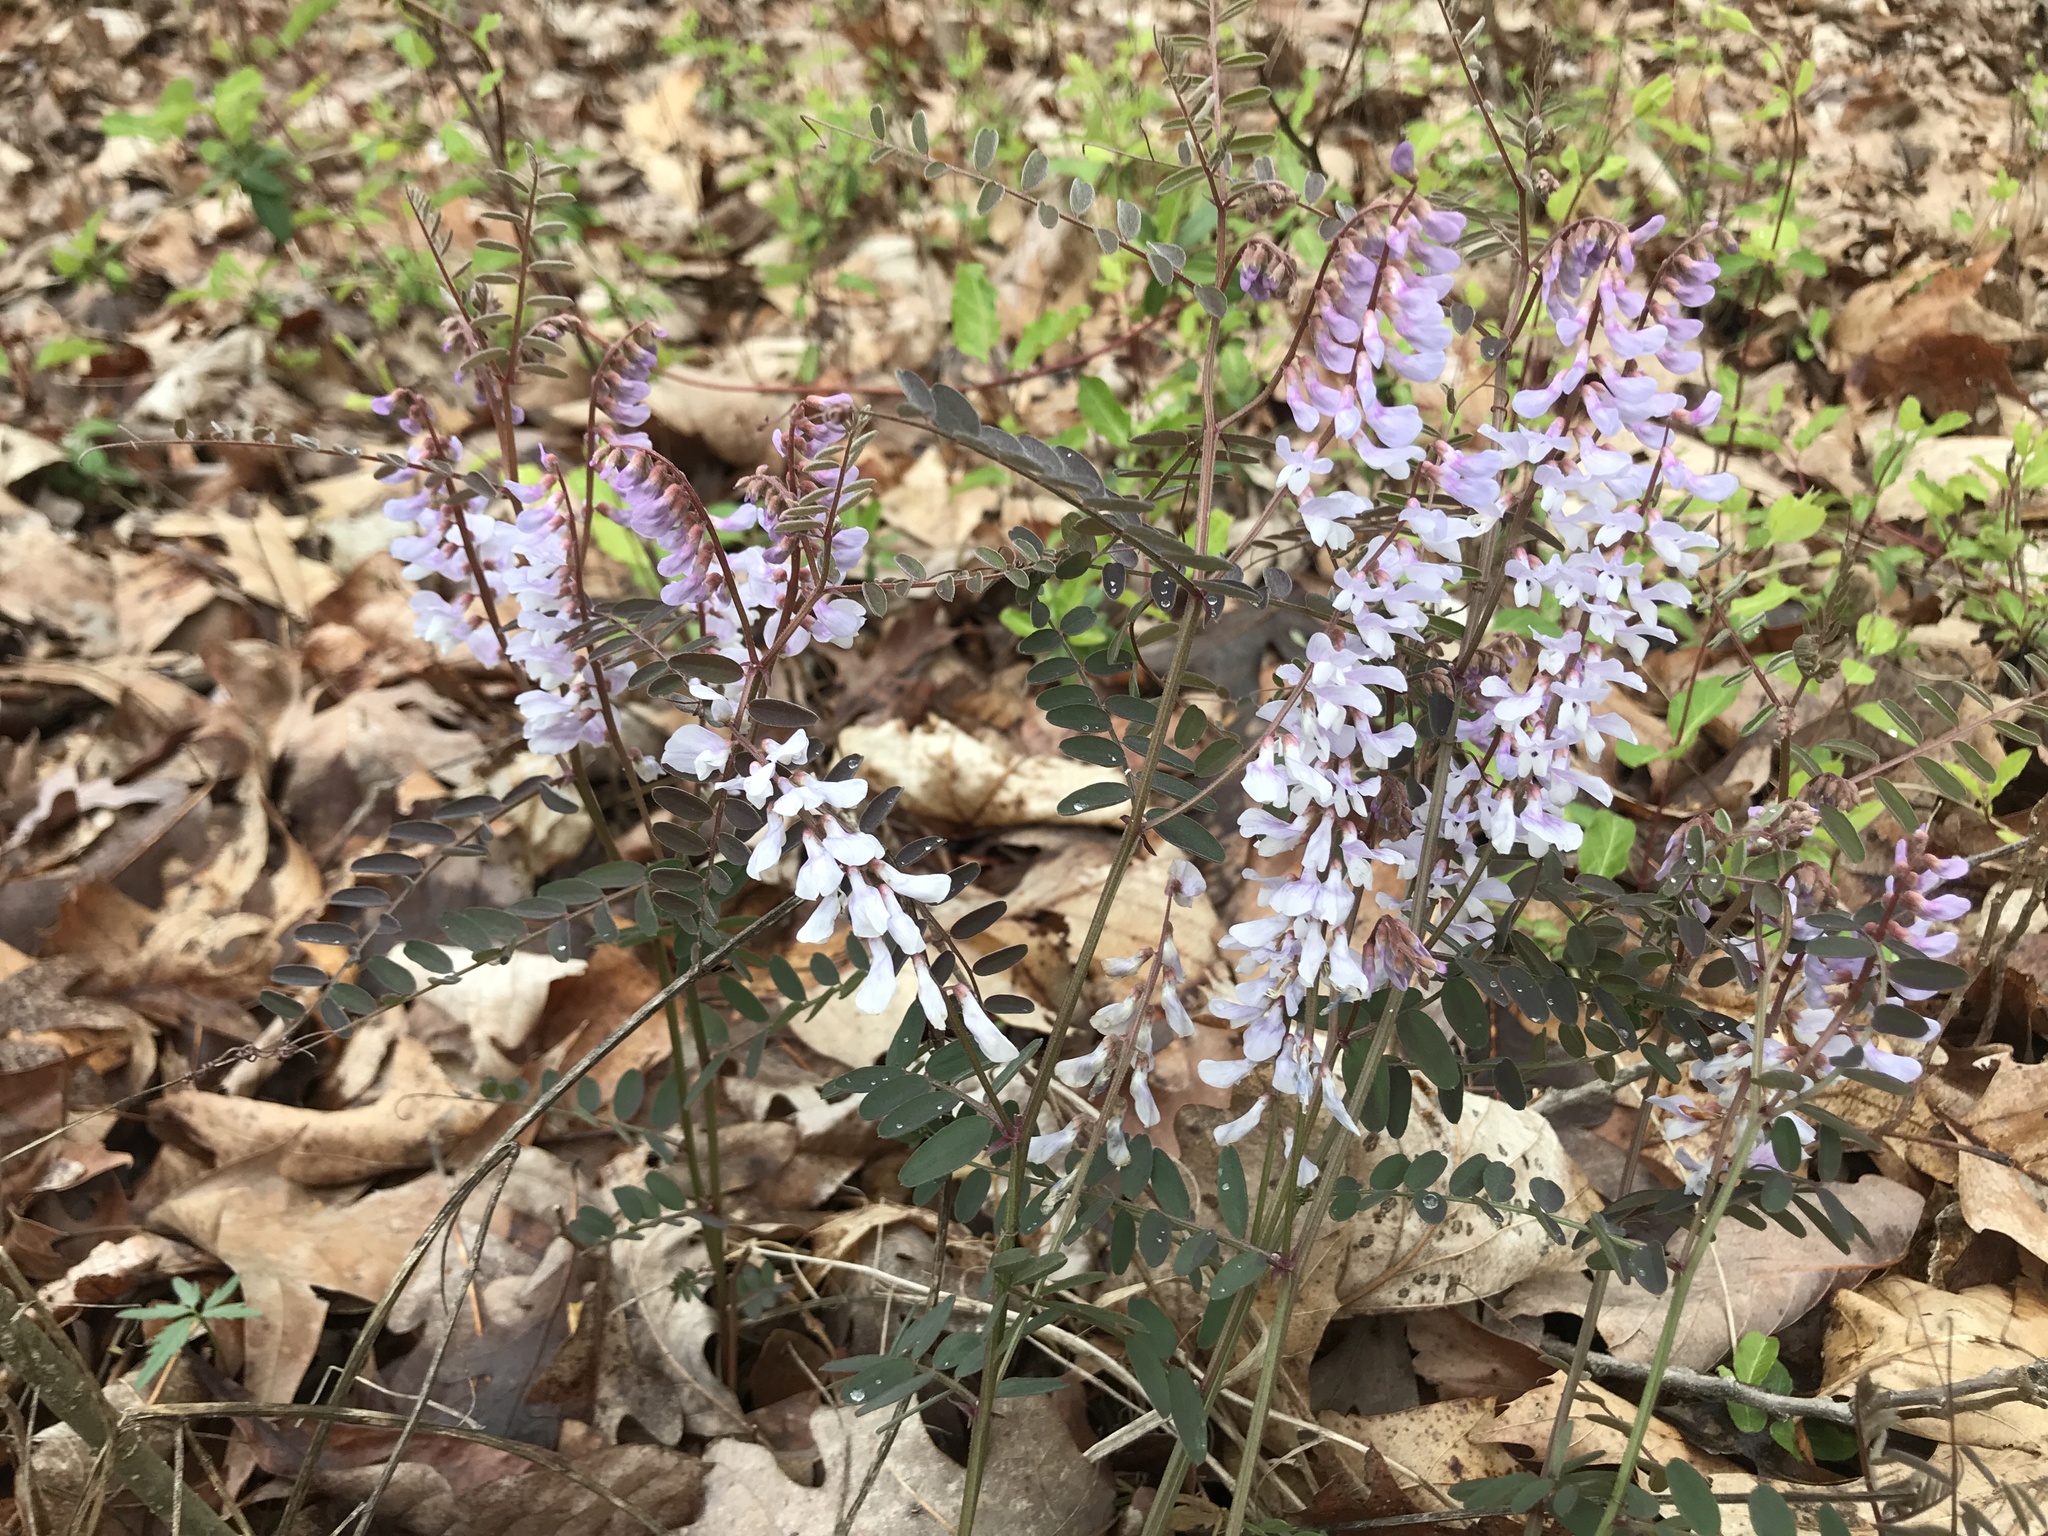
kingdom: Plantae
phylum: Tracheophyta
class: Magnoliopsida
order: Fabales
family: Fabaceae
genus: Vicia
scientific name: Vicia caroliniana
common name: Carolina vetch
